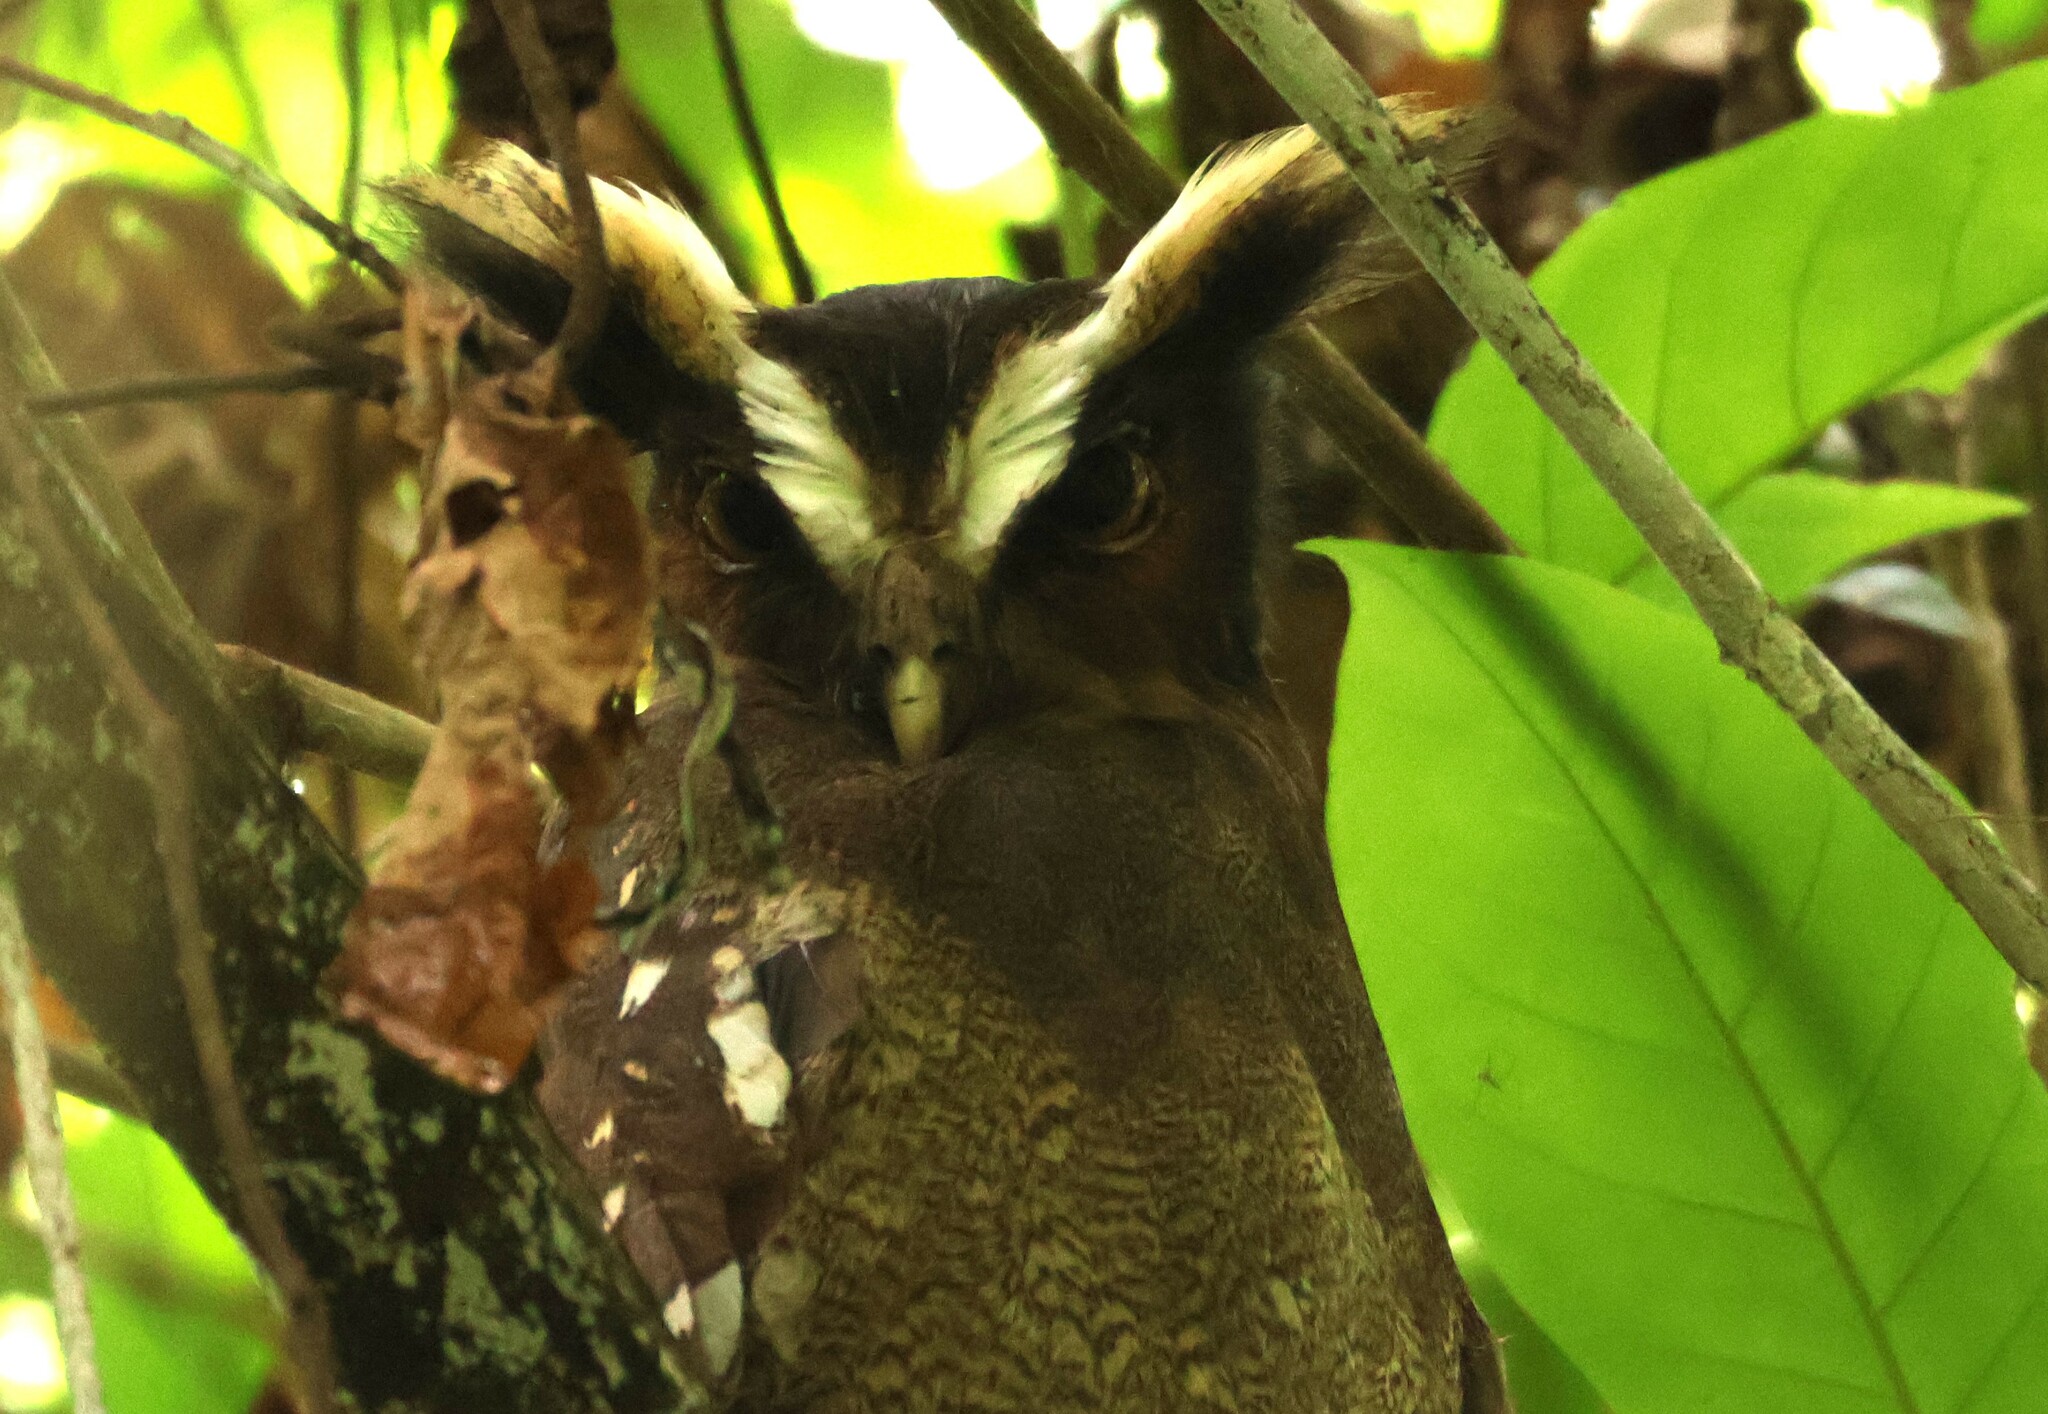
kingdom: Animalia
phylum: Chordata
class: Aves
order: Strigiformes
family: Strigidae
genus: Lophostrix
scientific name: Lophostrix cristata
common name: Crested owl
